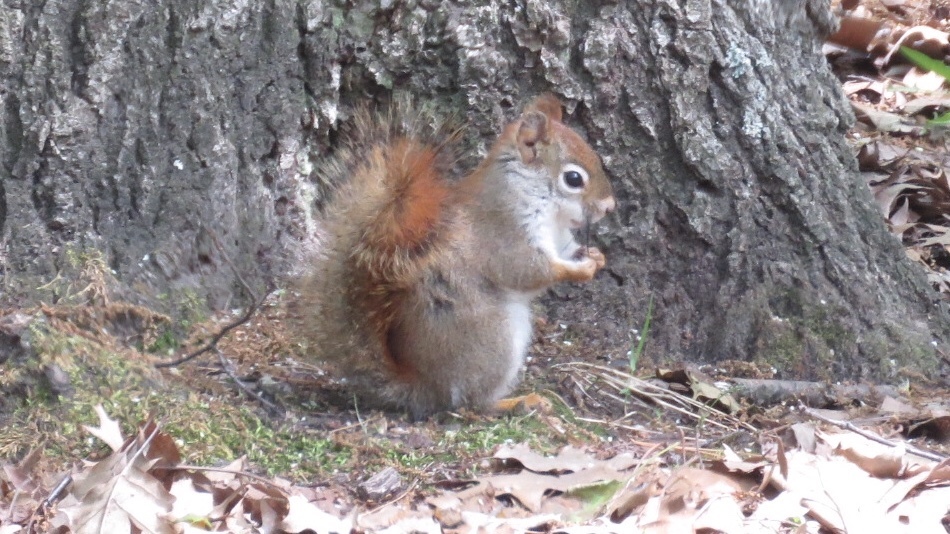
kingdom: Animalia
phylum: Chordata
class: Mammalia
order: Rodentia
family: Sciuridae
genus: Tamiasciurus
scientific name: Tamiasciurus hudsonicus
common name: Red squirrel
